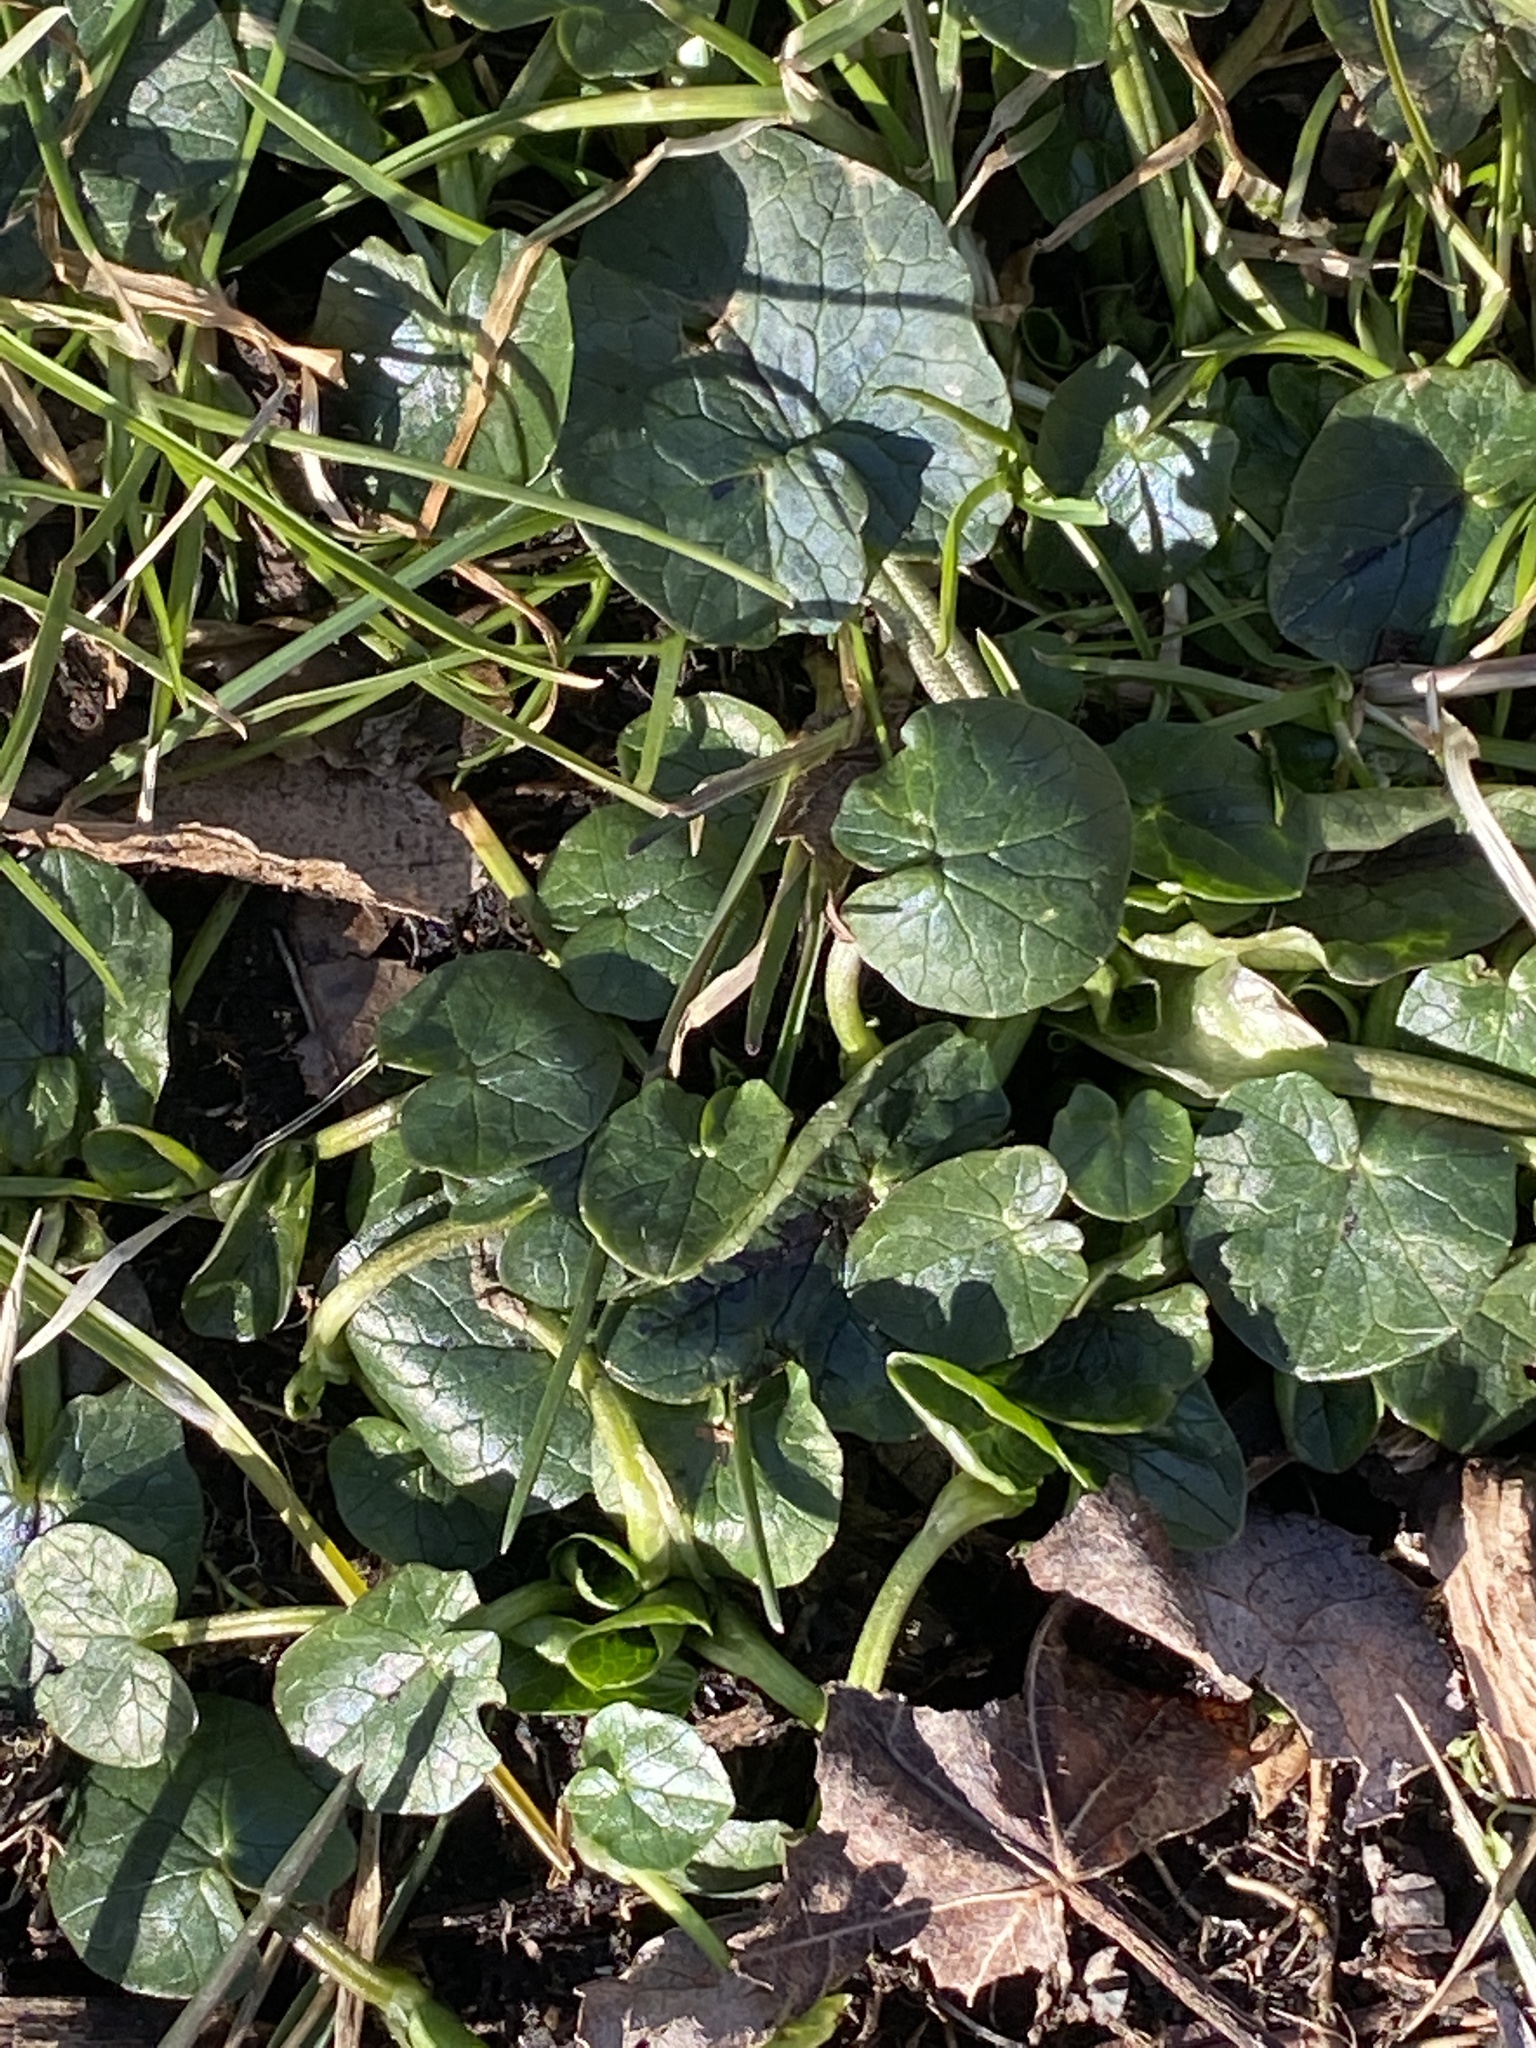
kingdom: Plantae
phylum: Tracheophyta
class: Magnoliopsida
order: Ranunculales
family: Ranunculaceae
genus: Ficaria
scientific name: Ficaria verna
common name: Lesser celandine
